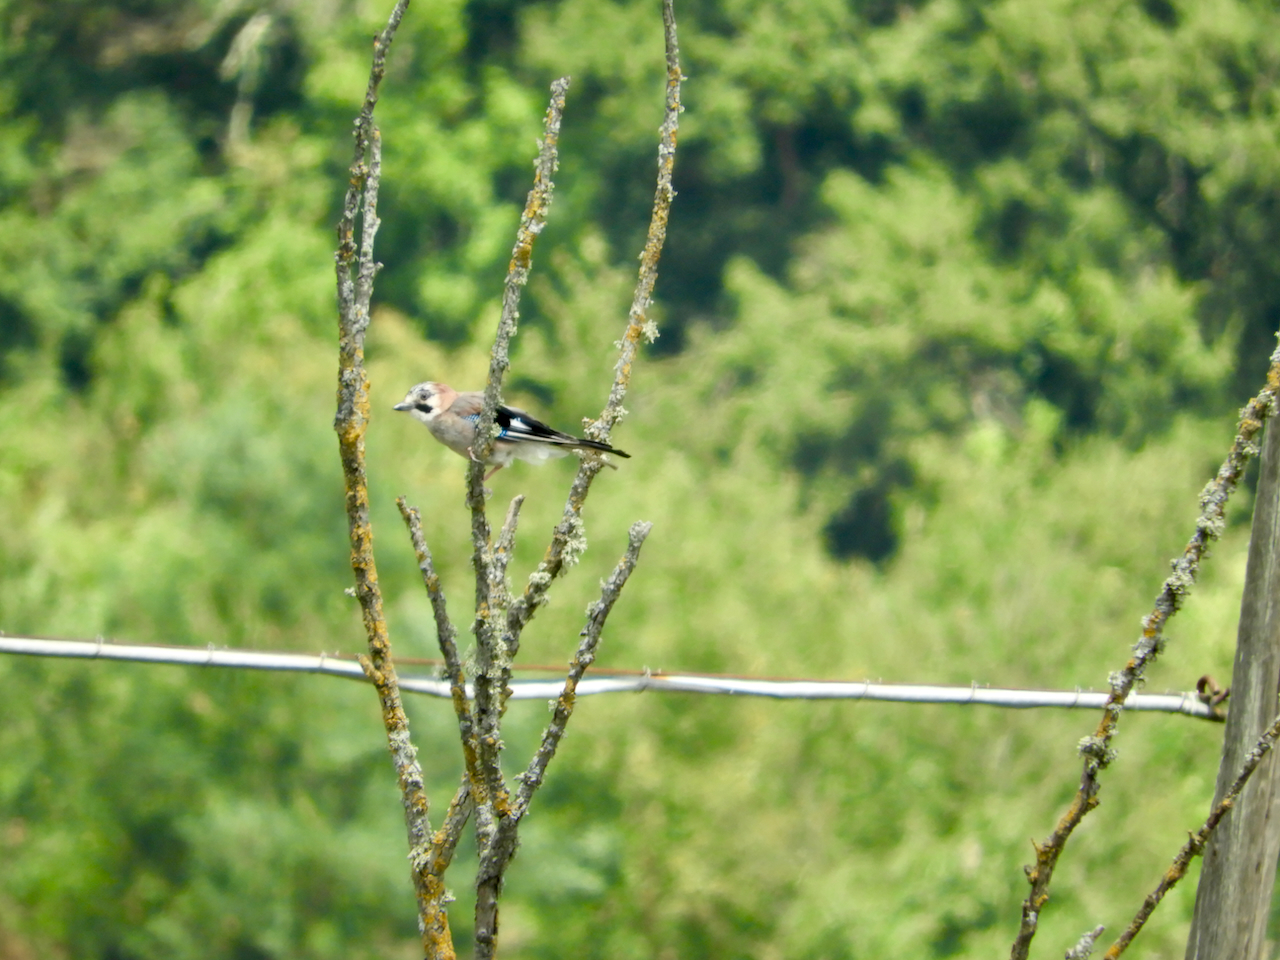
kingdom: Animalia
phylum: Chordata
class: Aves
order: Passeriformes
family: Corvidae
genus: Garrulus
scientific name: Garrulus glandarius
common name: Eurasian jay
